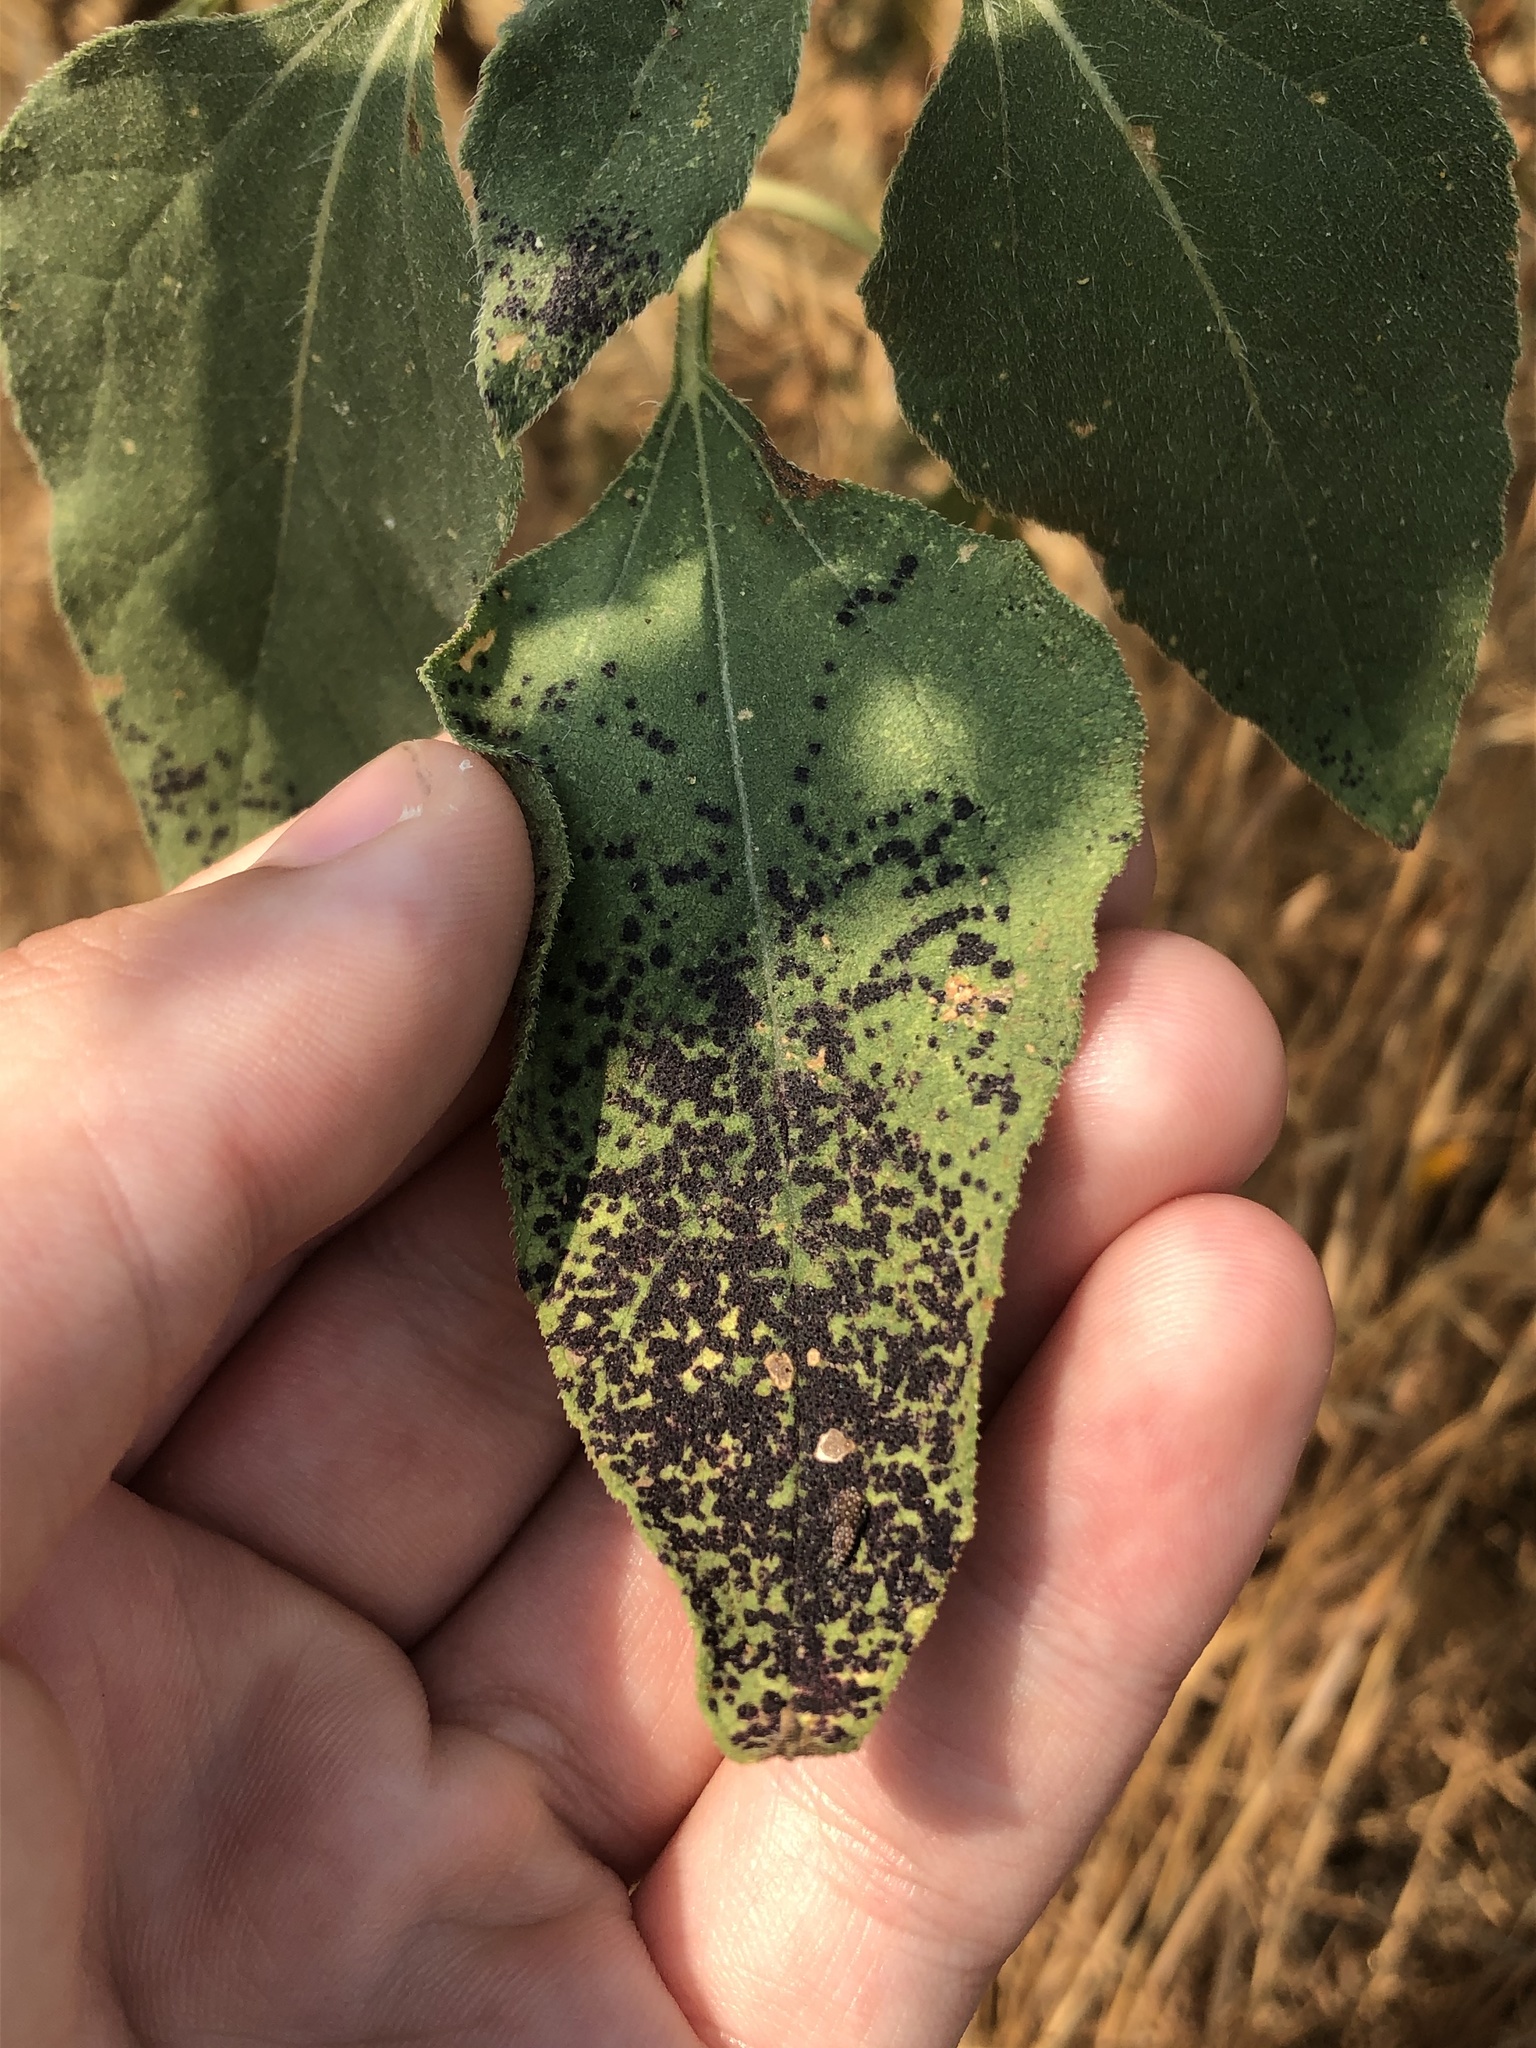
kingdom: Plantae
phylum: Tracheophyta
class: Magnoliopsida
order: Asterales
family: Asteraceae
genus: Helianthus
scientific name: Helianthus annuus
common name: Sunflower
